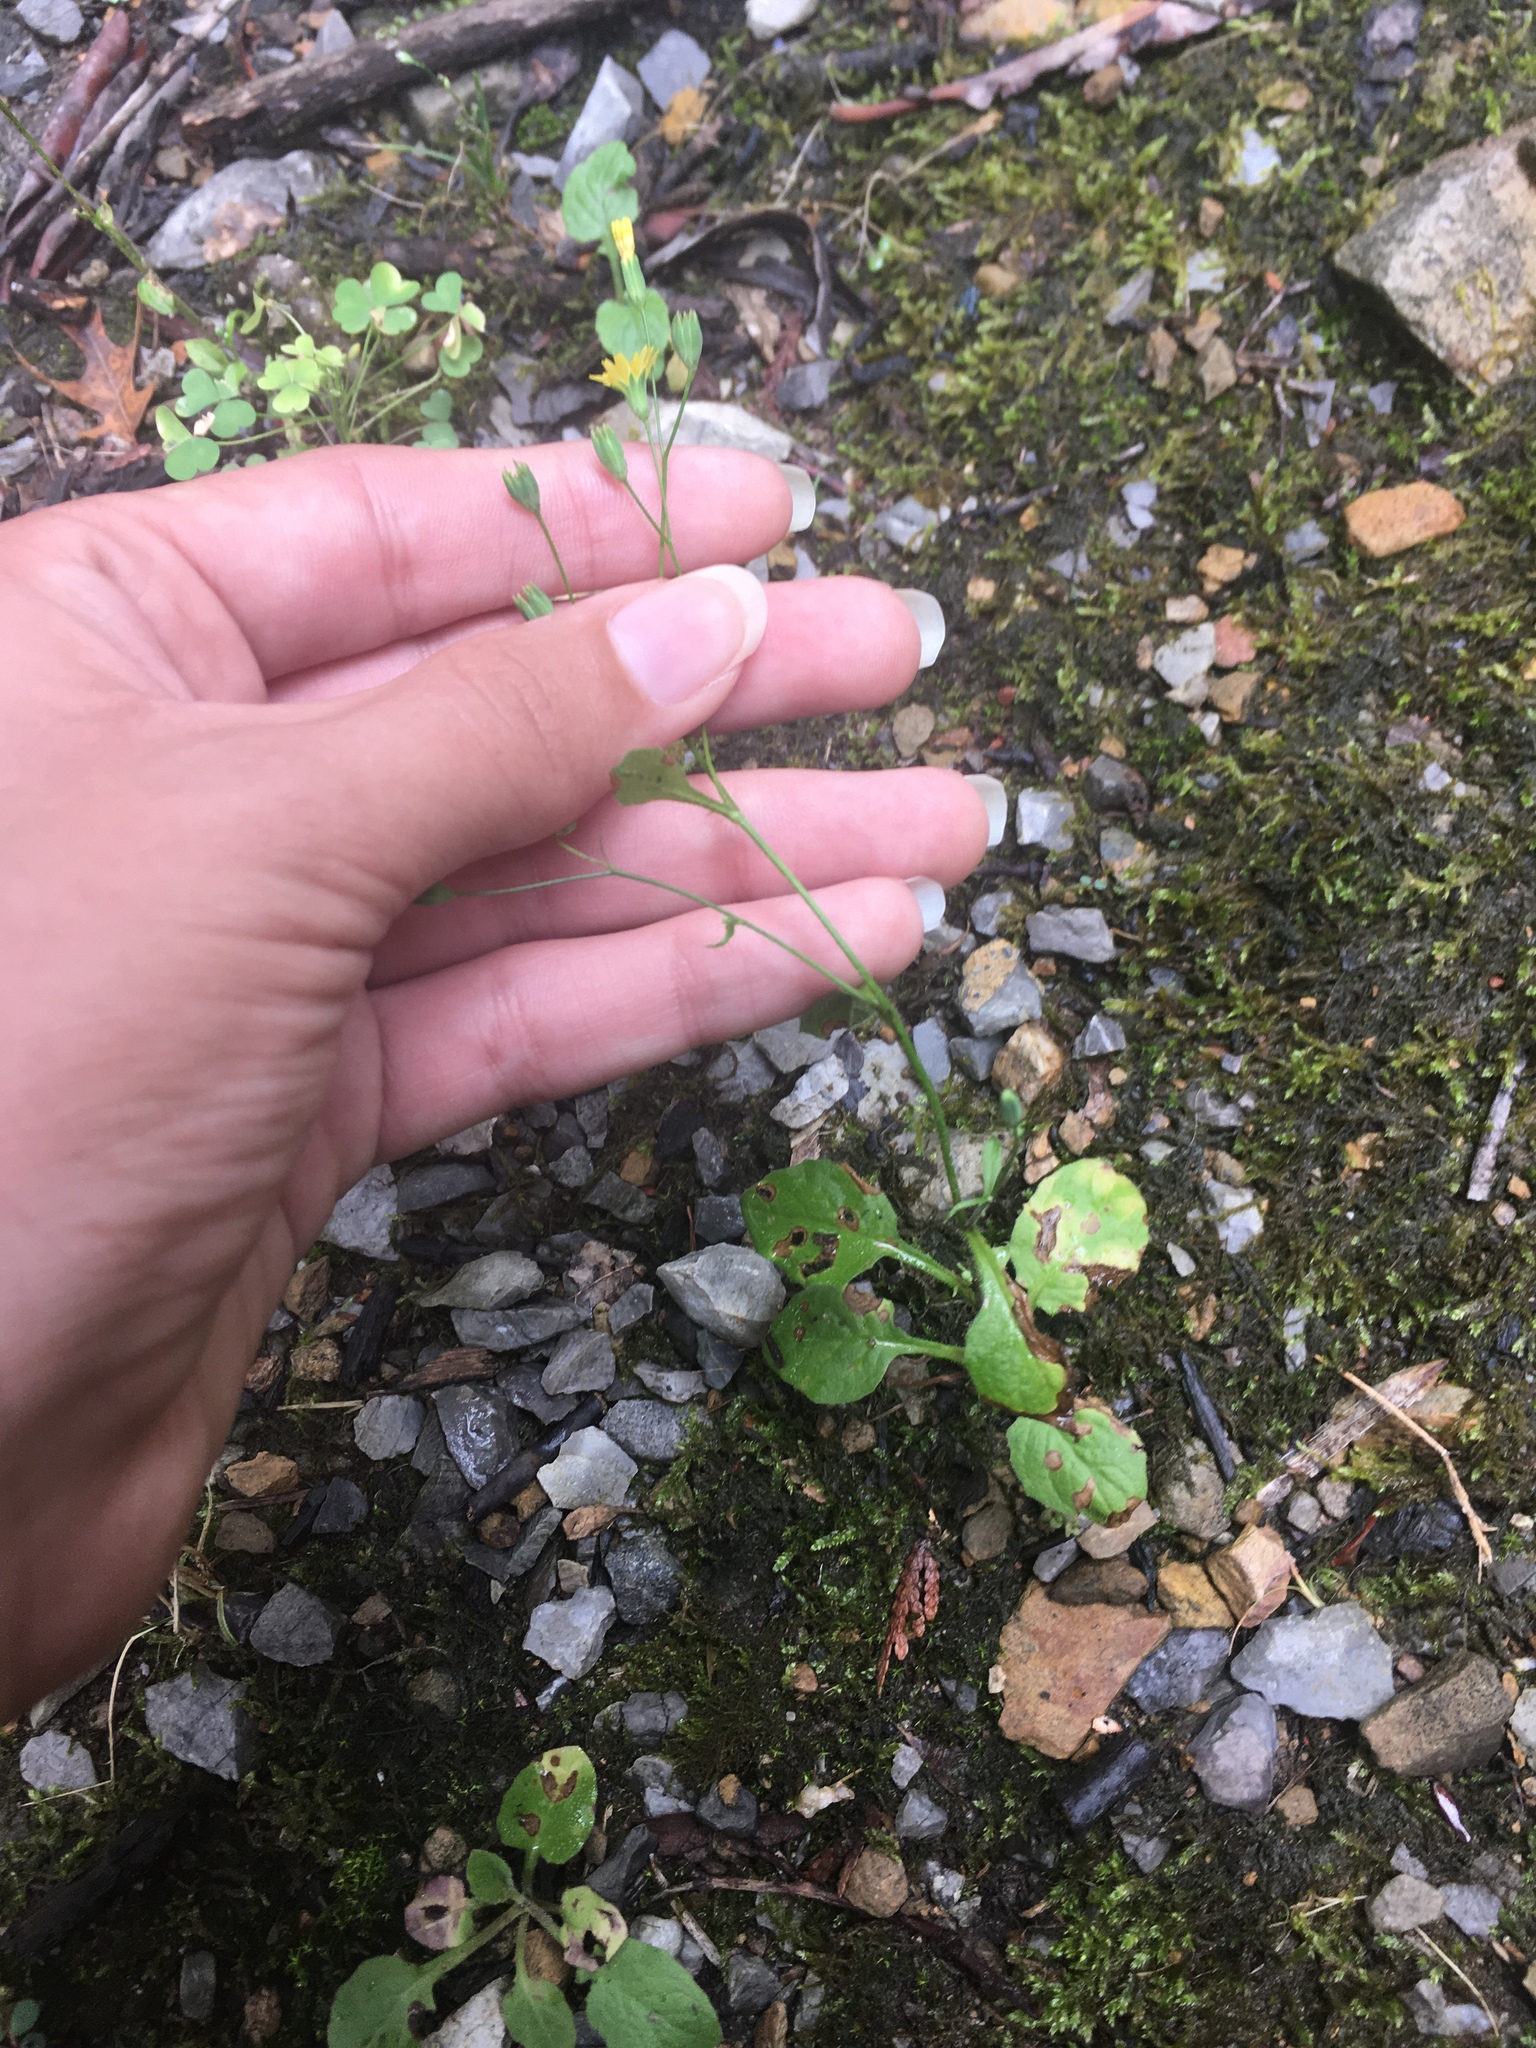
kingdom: Plantae
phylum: Tracheophyta
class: Magnoliopsida
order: Asterales
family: Asteraceae
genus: Lapsana
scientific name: Lapsana communis
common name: Nipplewort
